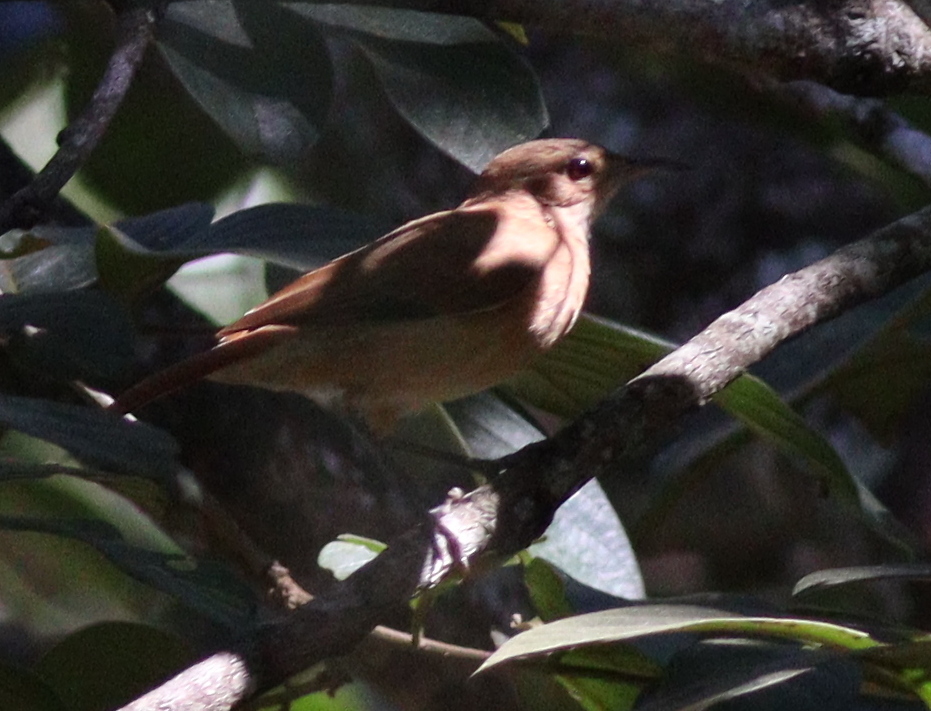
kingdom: Animalia
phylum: Chordata
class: Aves
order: Passeriformes
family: Furnariidae
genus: Furnarius
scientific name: Furnarius rufus
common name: Rufous hornero
